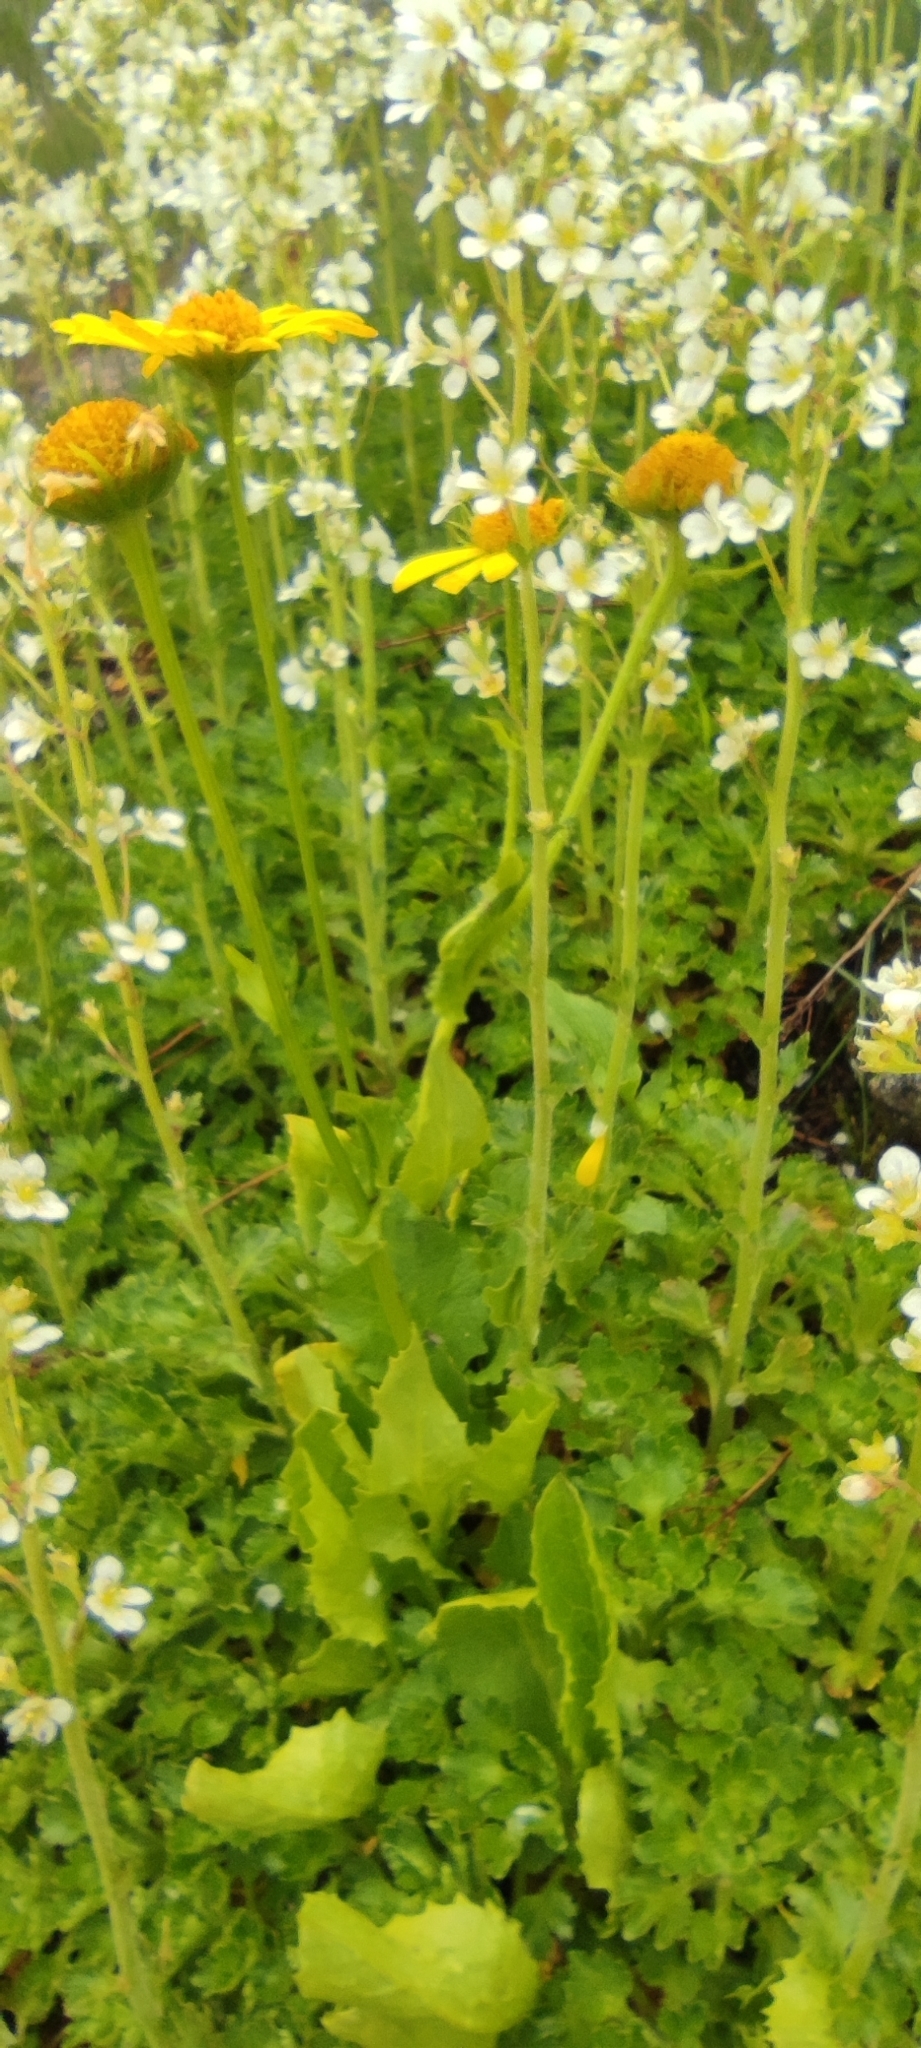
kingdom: Plantae
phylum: Tracheophyta
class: Magnoliopsida
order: Asterales
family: Asteraceae
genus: Doronicum
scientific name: Doronicum grandiflorum
